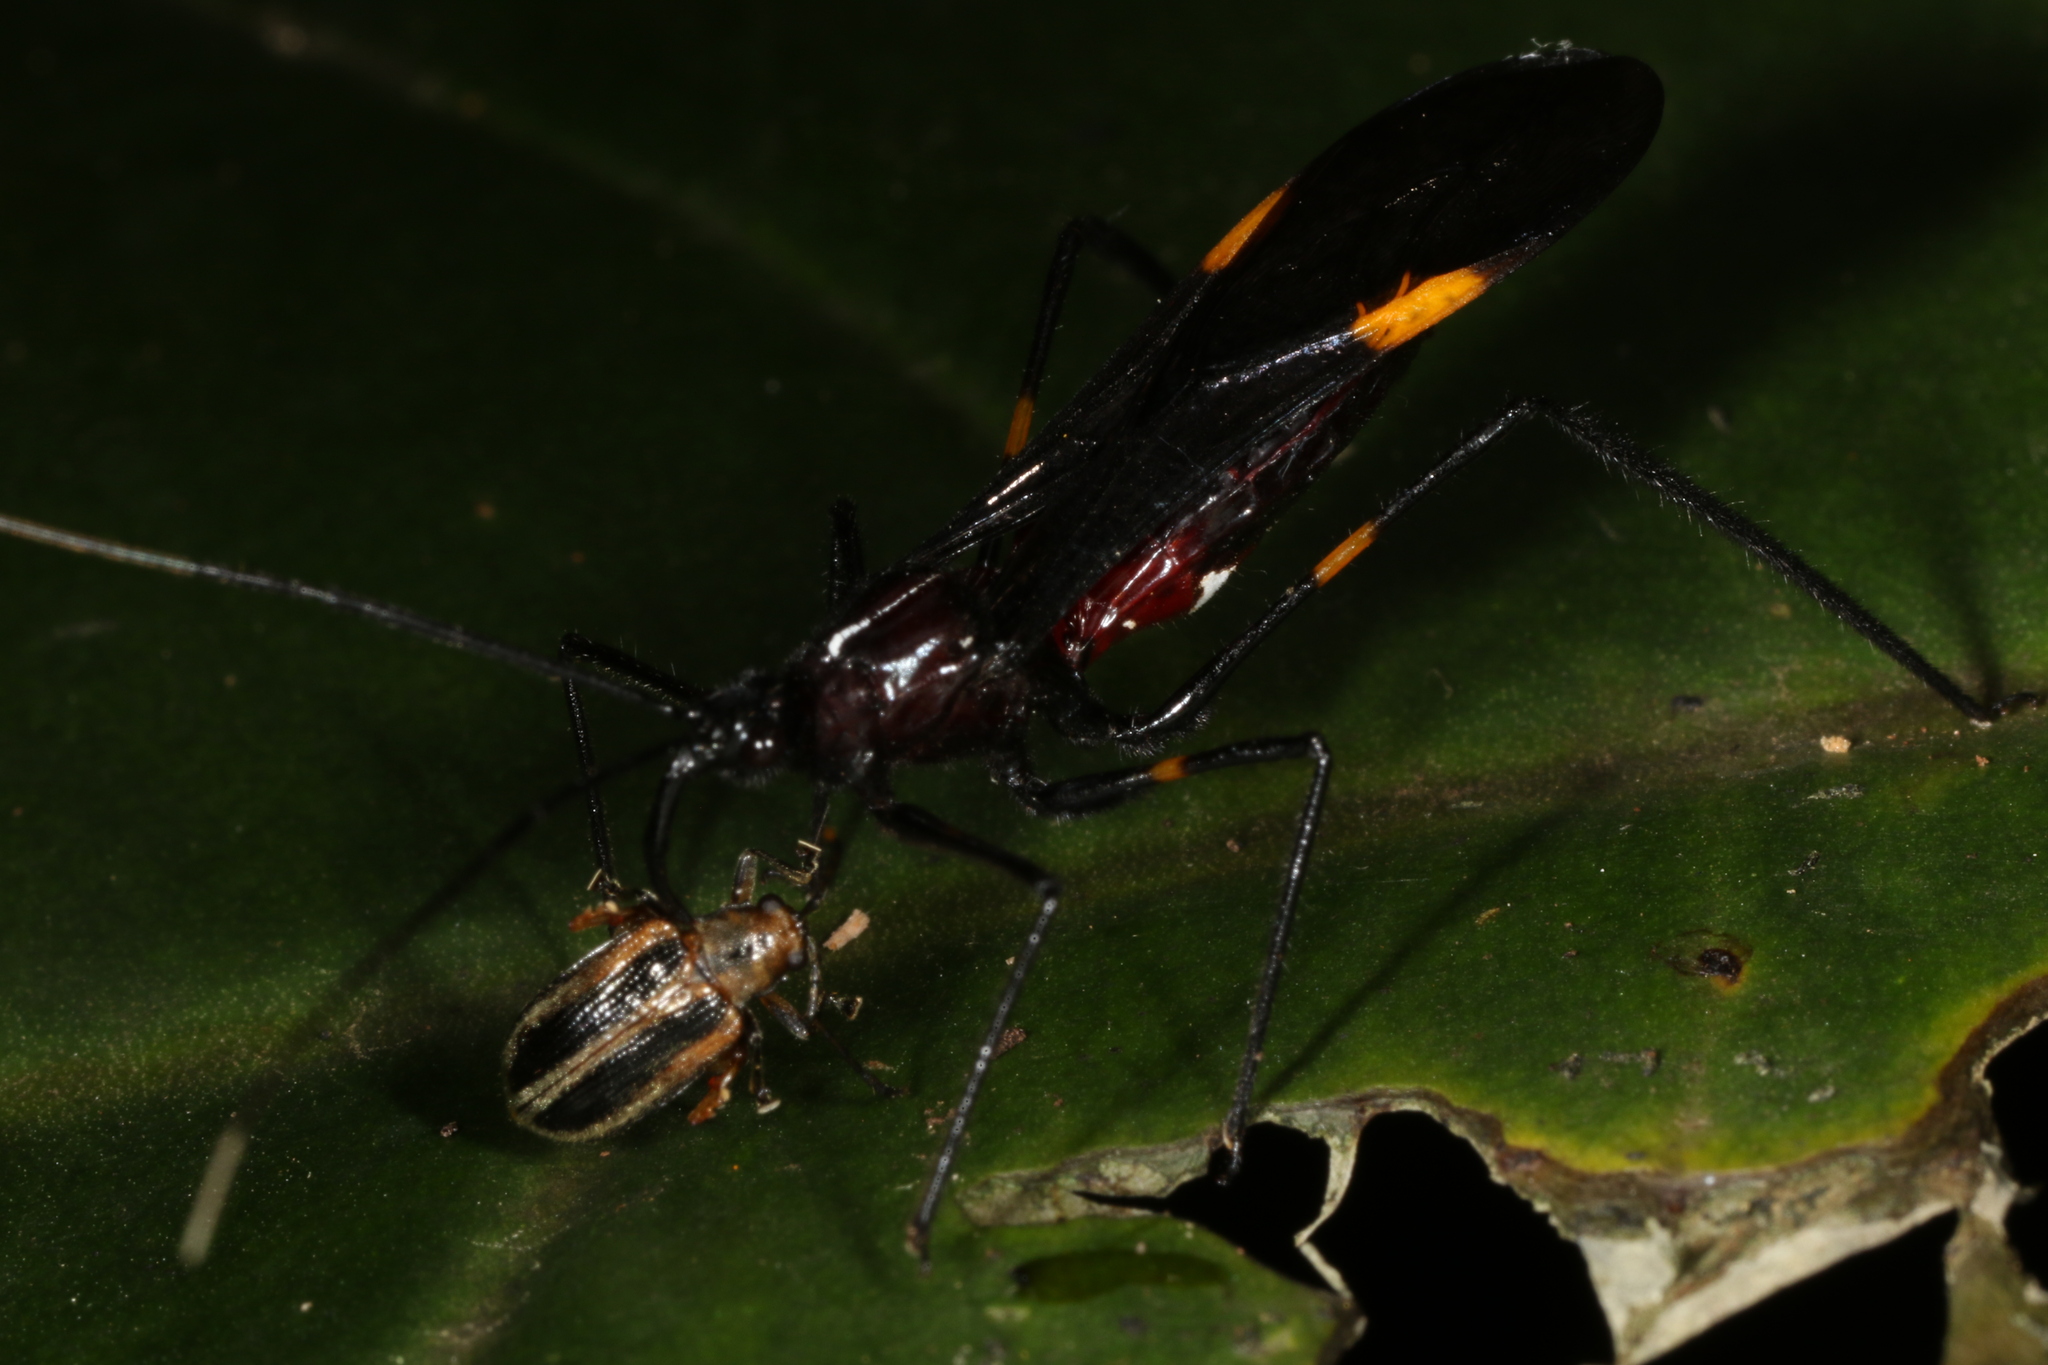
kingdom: Animalia
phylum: Arthropoda
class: Insecta
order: Hemiptera
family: Reduviidae
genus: Parahiranetis
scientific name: Parahiranetis salgadoi
